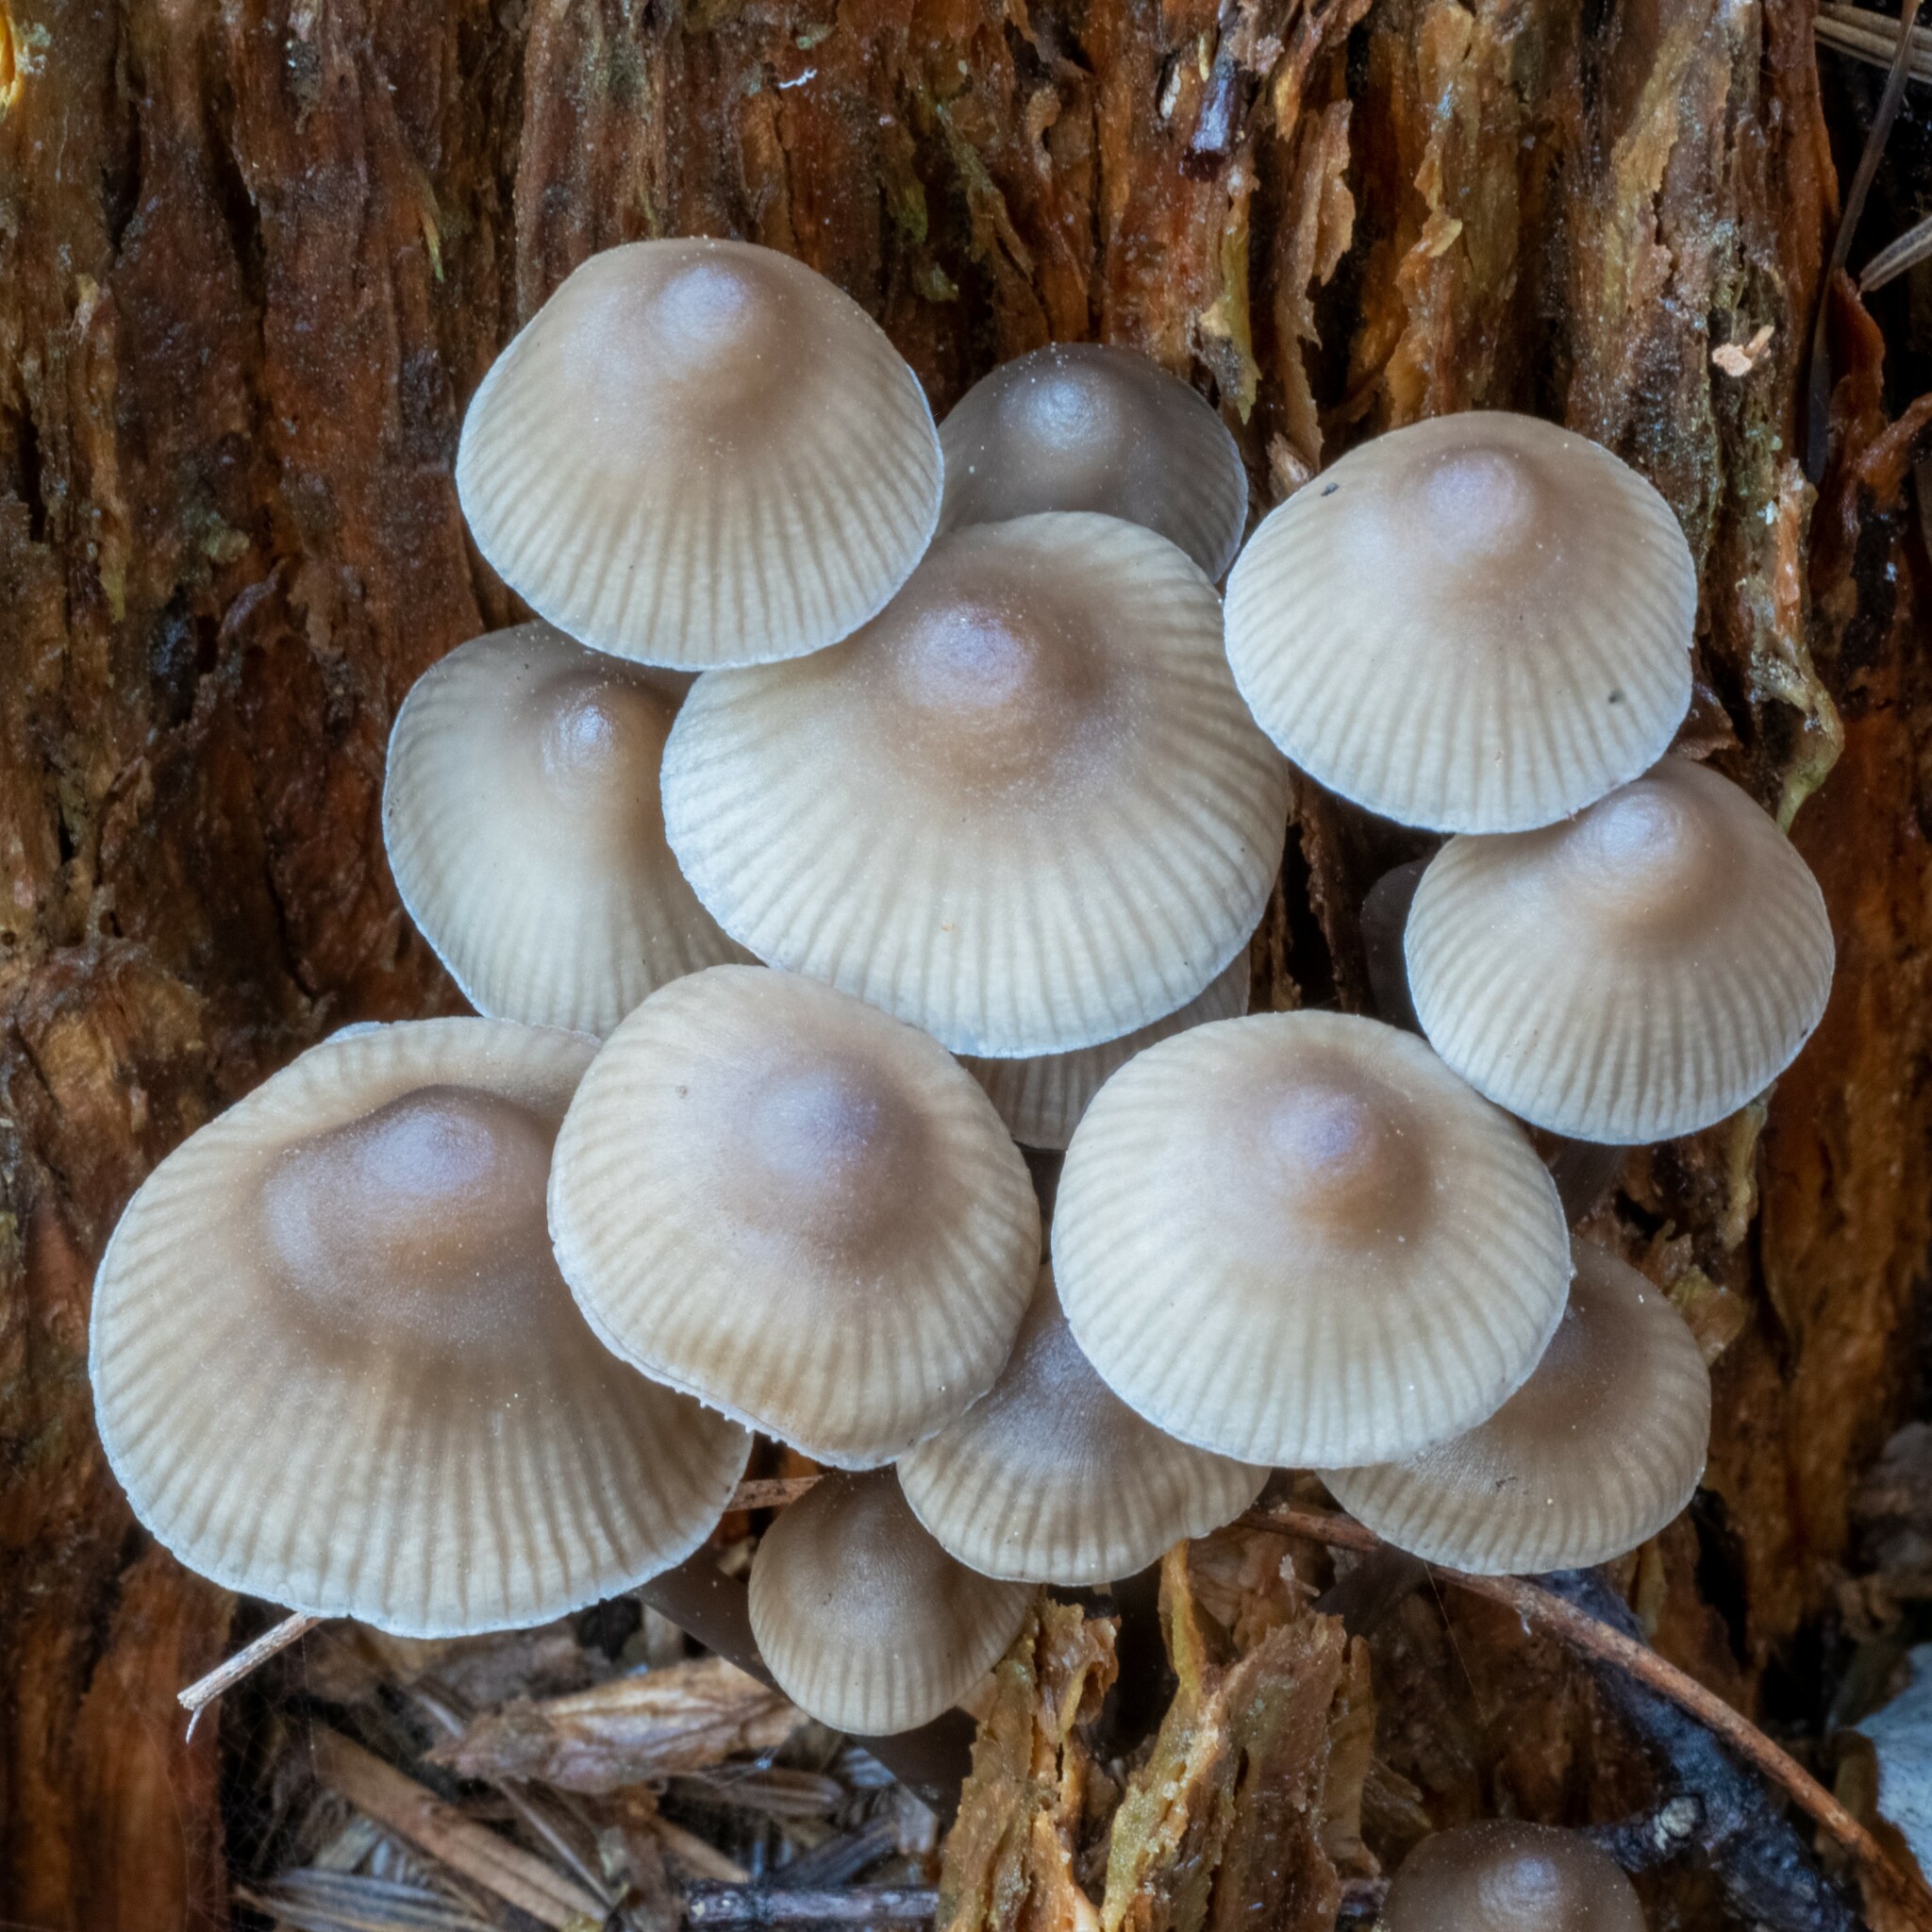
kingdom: Fungi
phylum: Basidiomycota
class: Agaricomycetes
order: Agaricales
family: Mycenaceae
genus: Mycena
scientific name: Mycena inclinata
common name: Clustered bonnet
